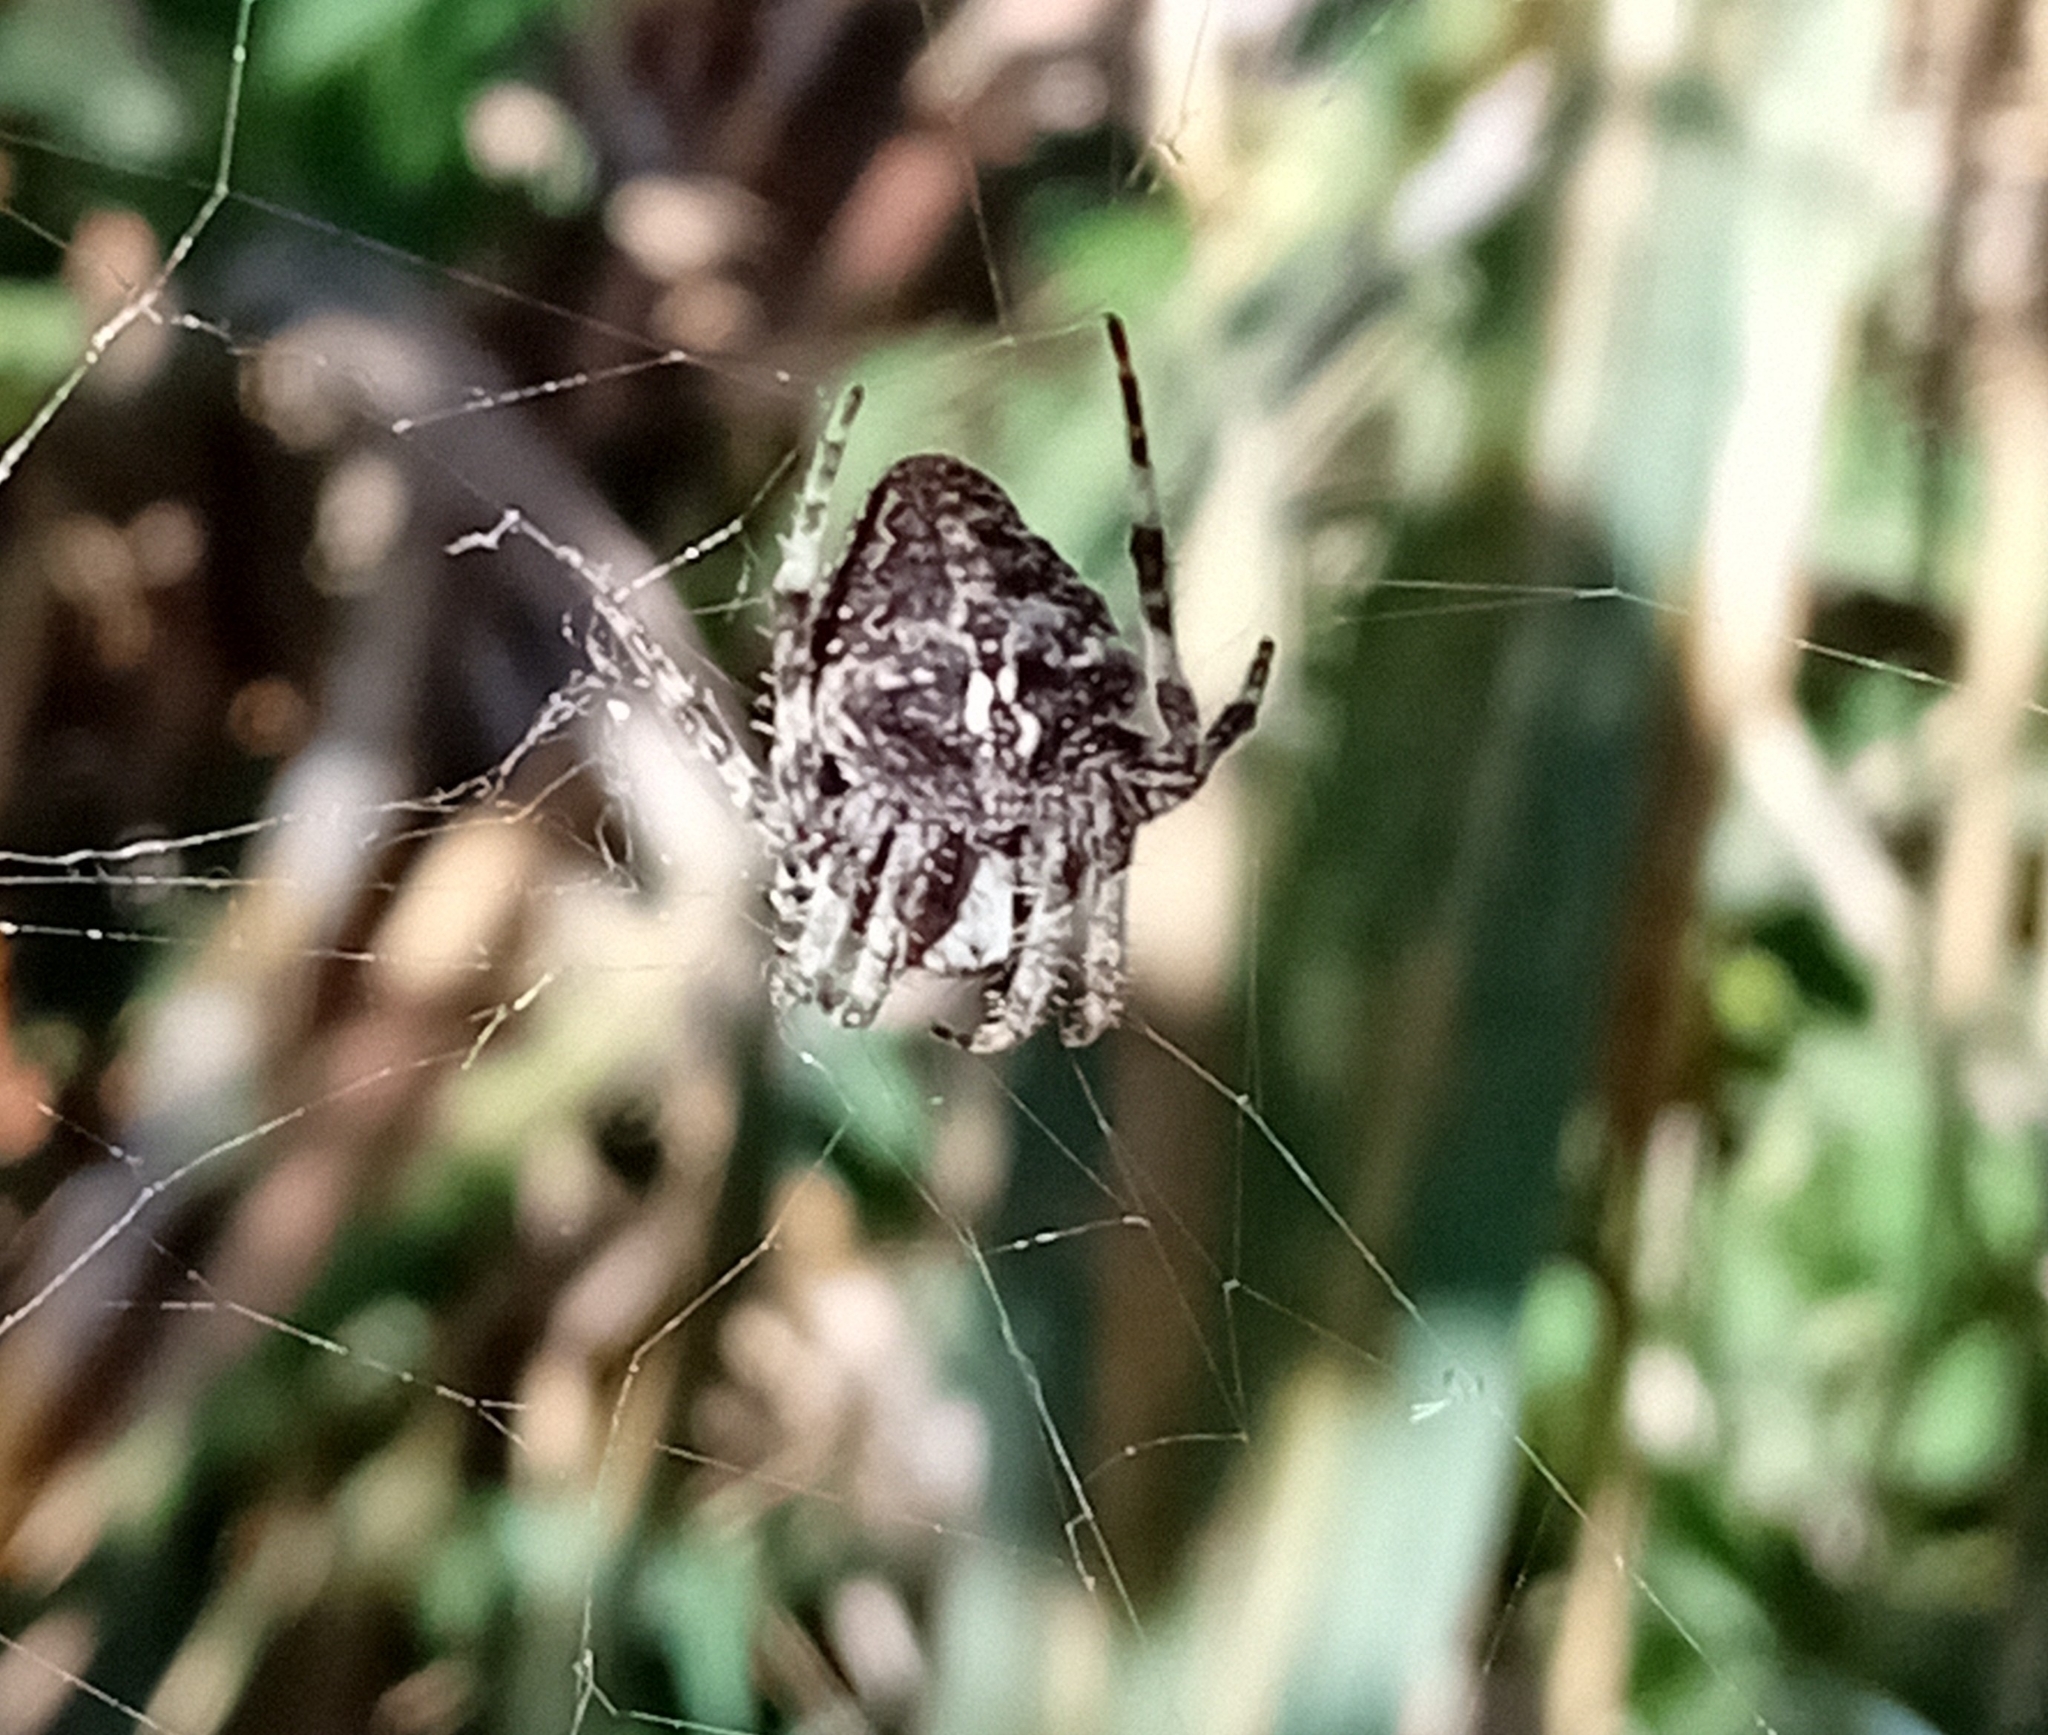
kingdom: Animalia
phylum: Arthropoda
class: Arachnida
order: Araneae
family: Araneidae
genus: Araneus
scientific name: Araneus angulatus
